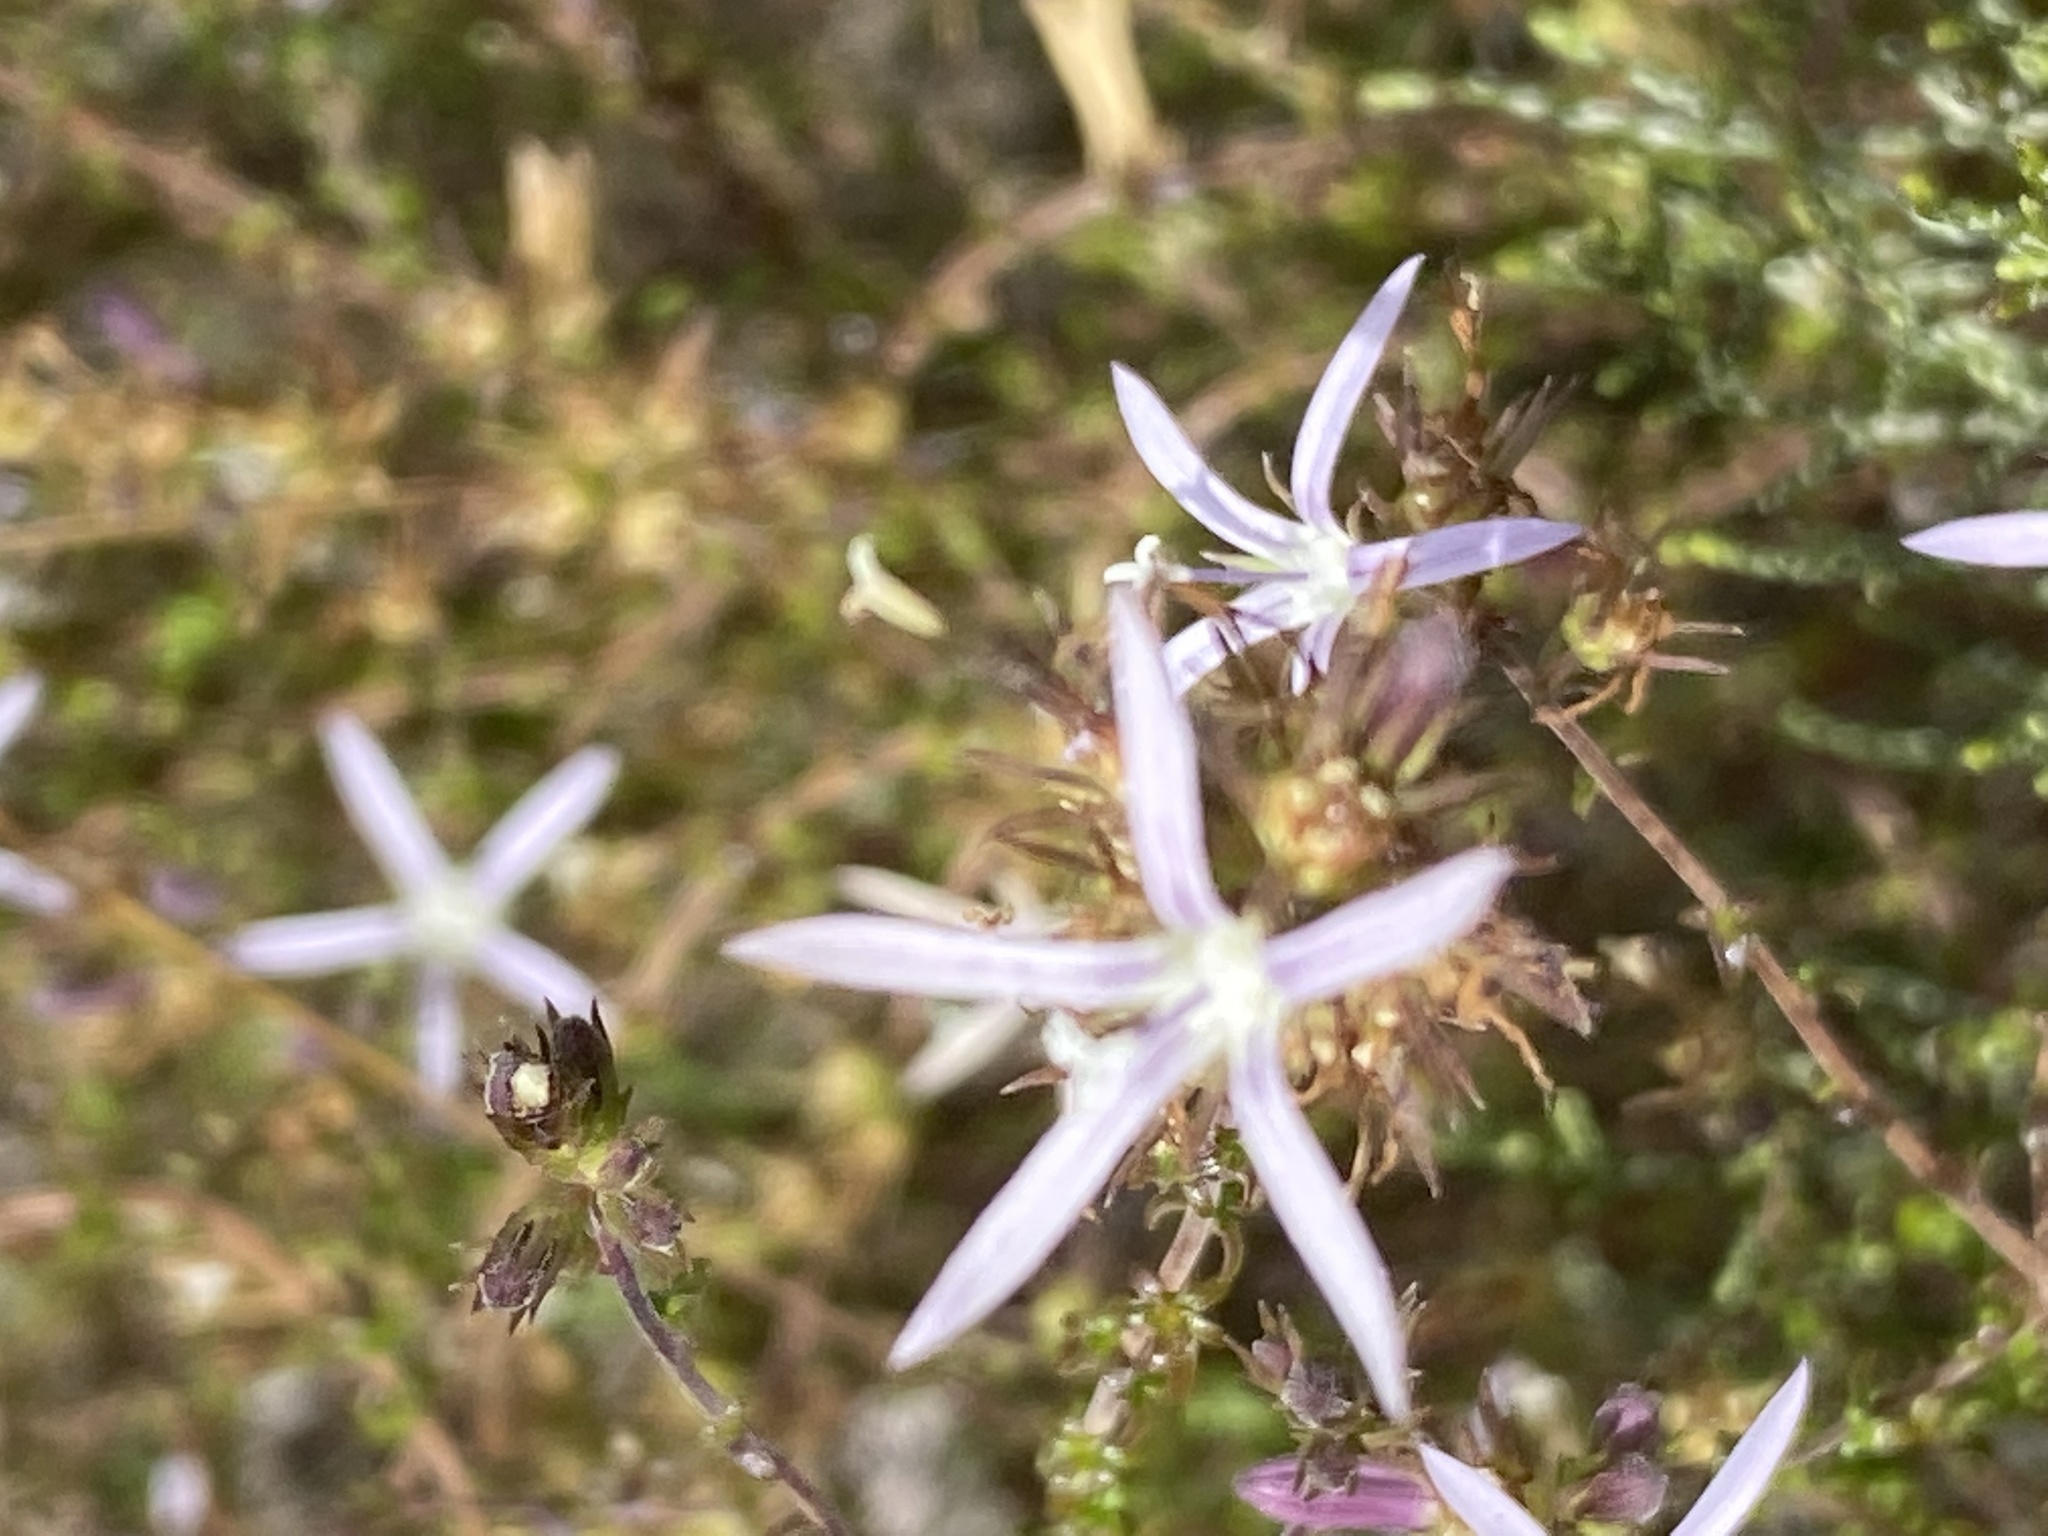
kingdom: Plantae
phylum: Tracheophyta
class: Magnoliopsida
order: Asterales
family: Campanulaceae
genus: Wahlenbergia
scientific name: Wahlenbergia loddigesii
